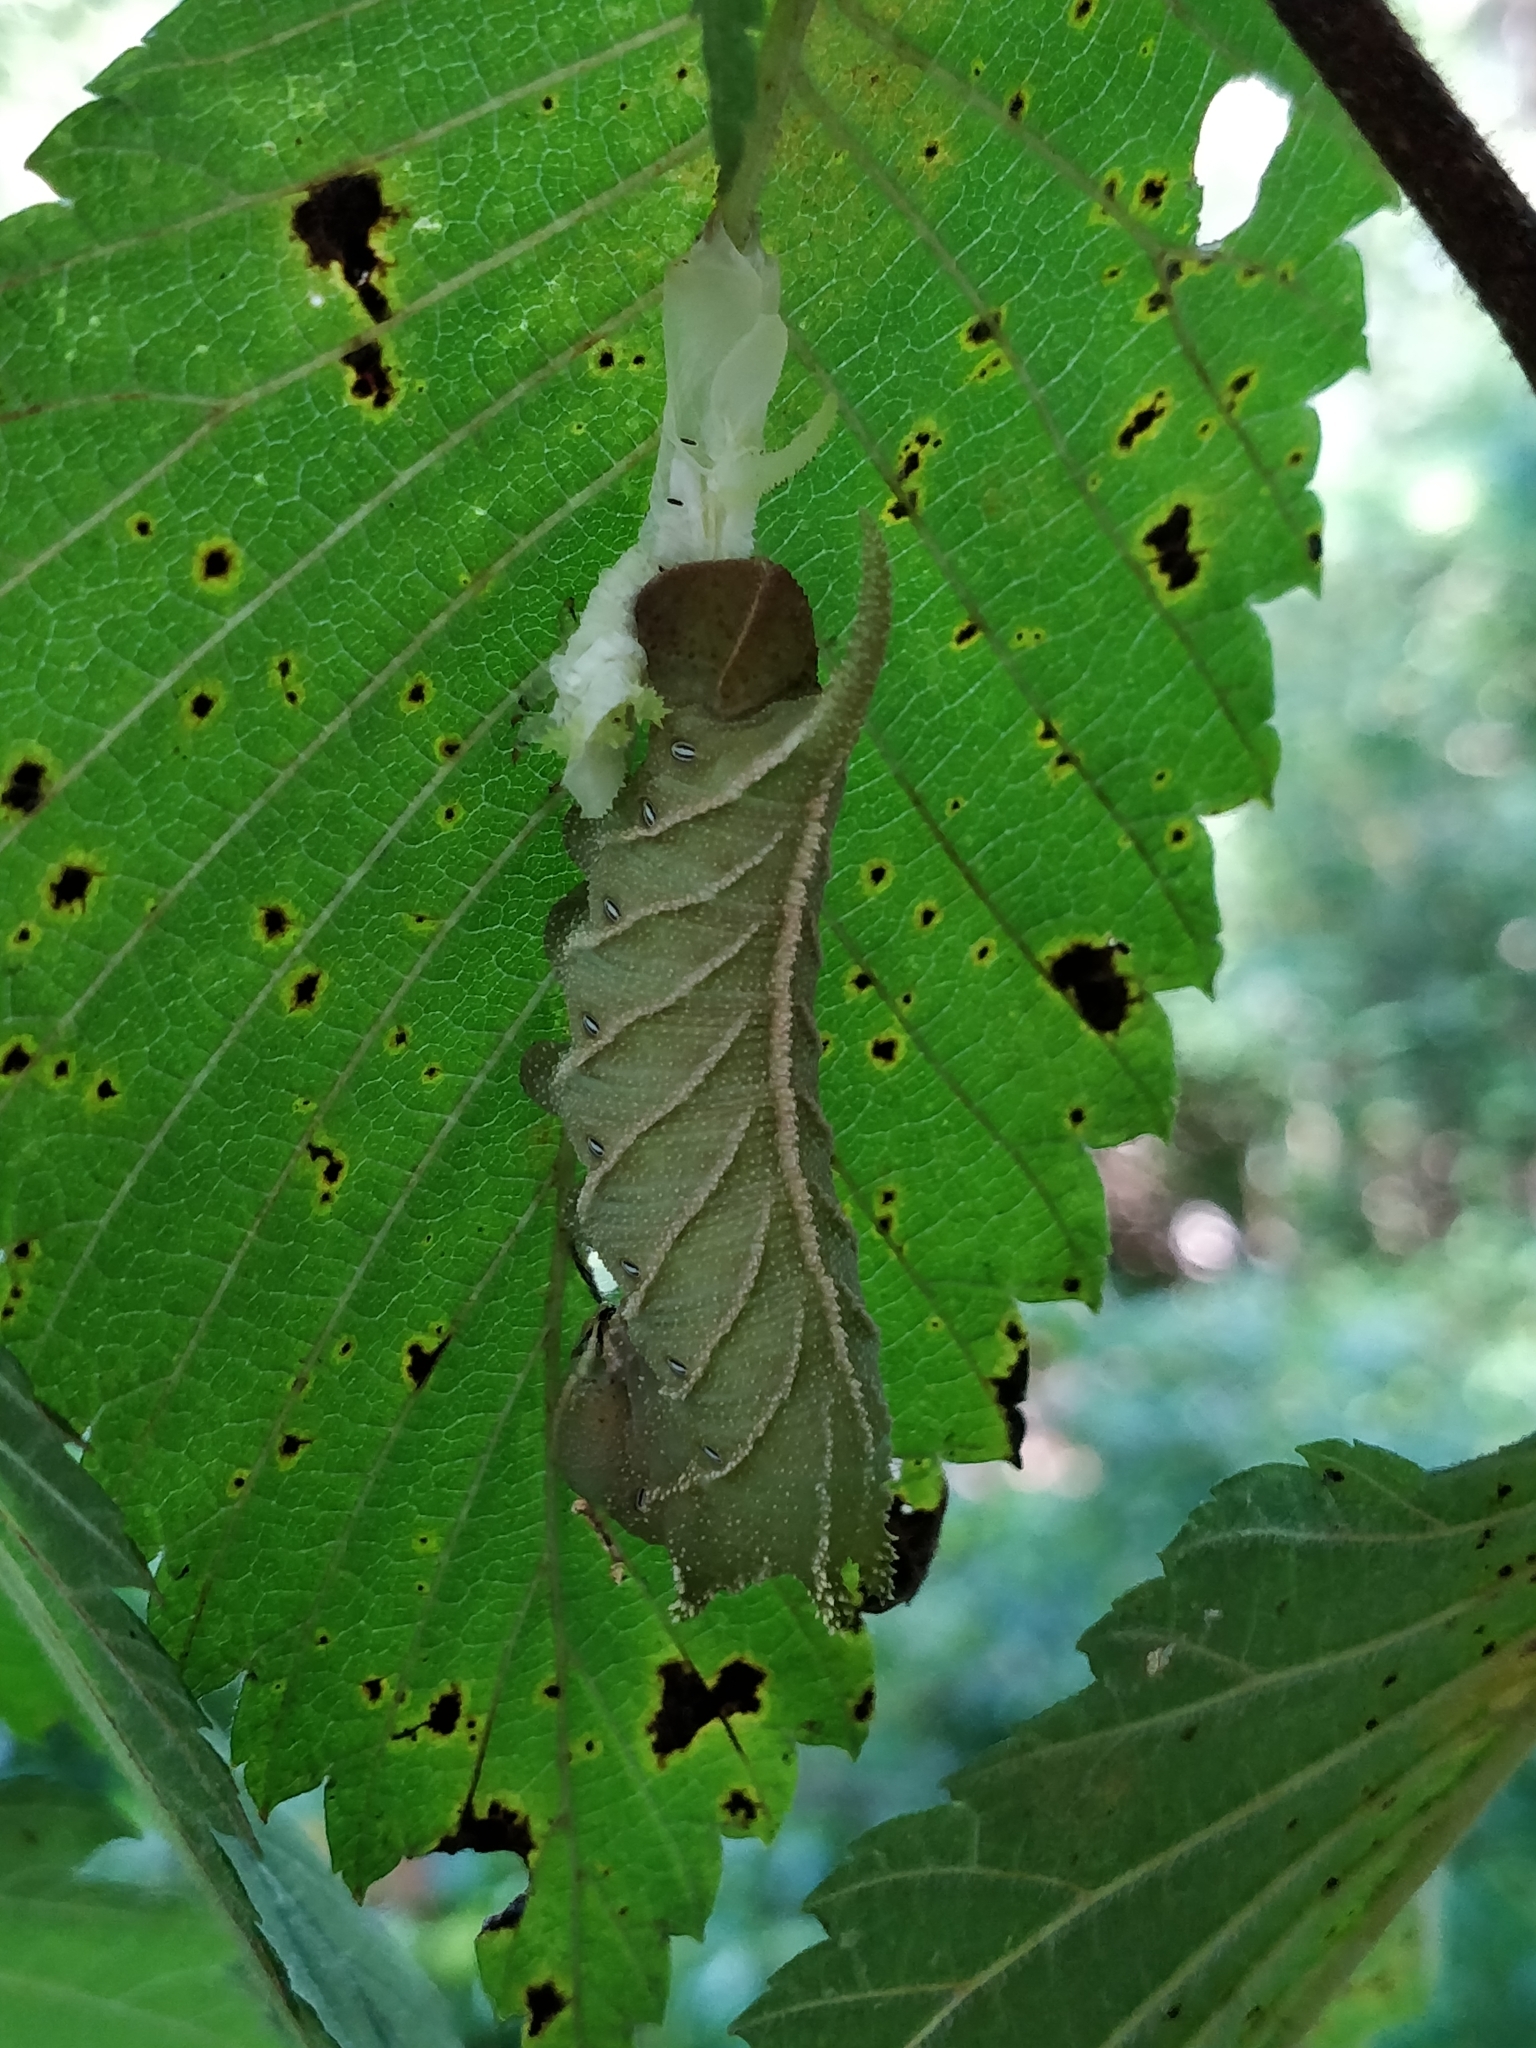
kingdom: Animalia
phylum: Arthropoda
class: Insecta
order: Lepidoptera
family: Sphingidae
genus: Ceratomia
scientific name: Ceratomia amyntor
